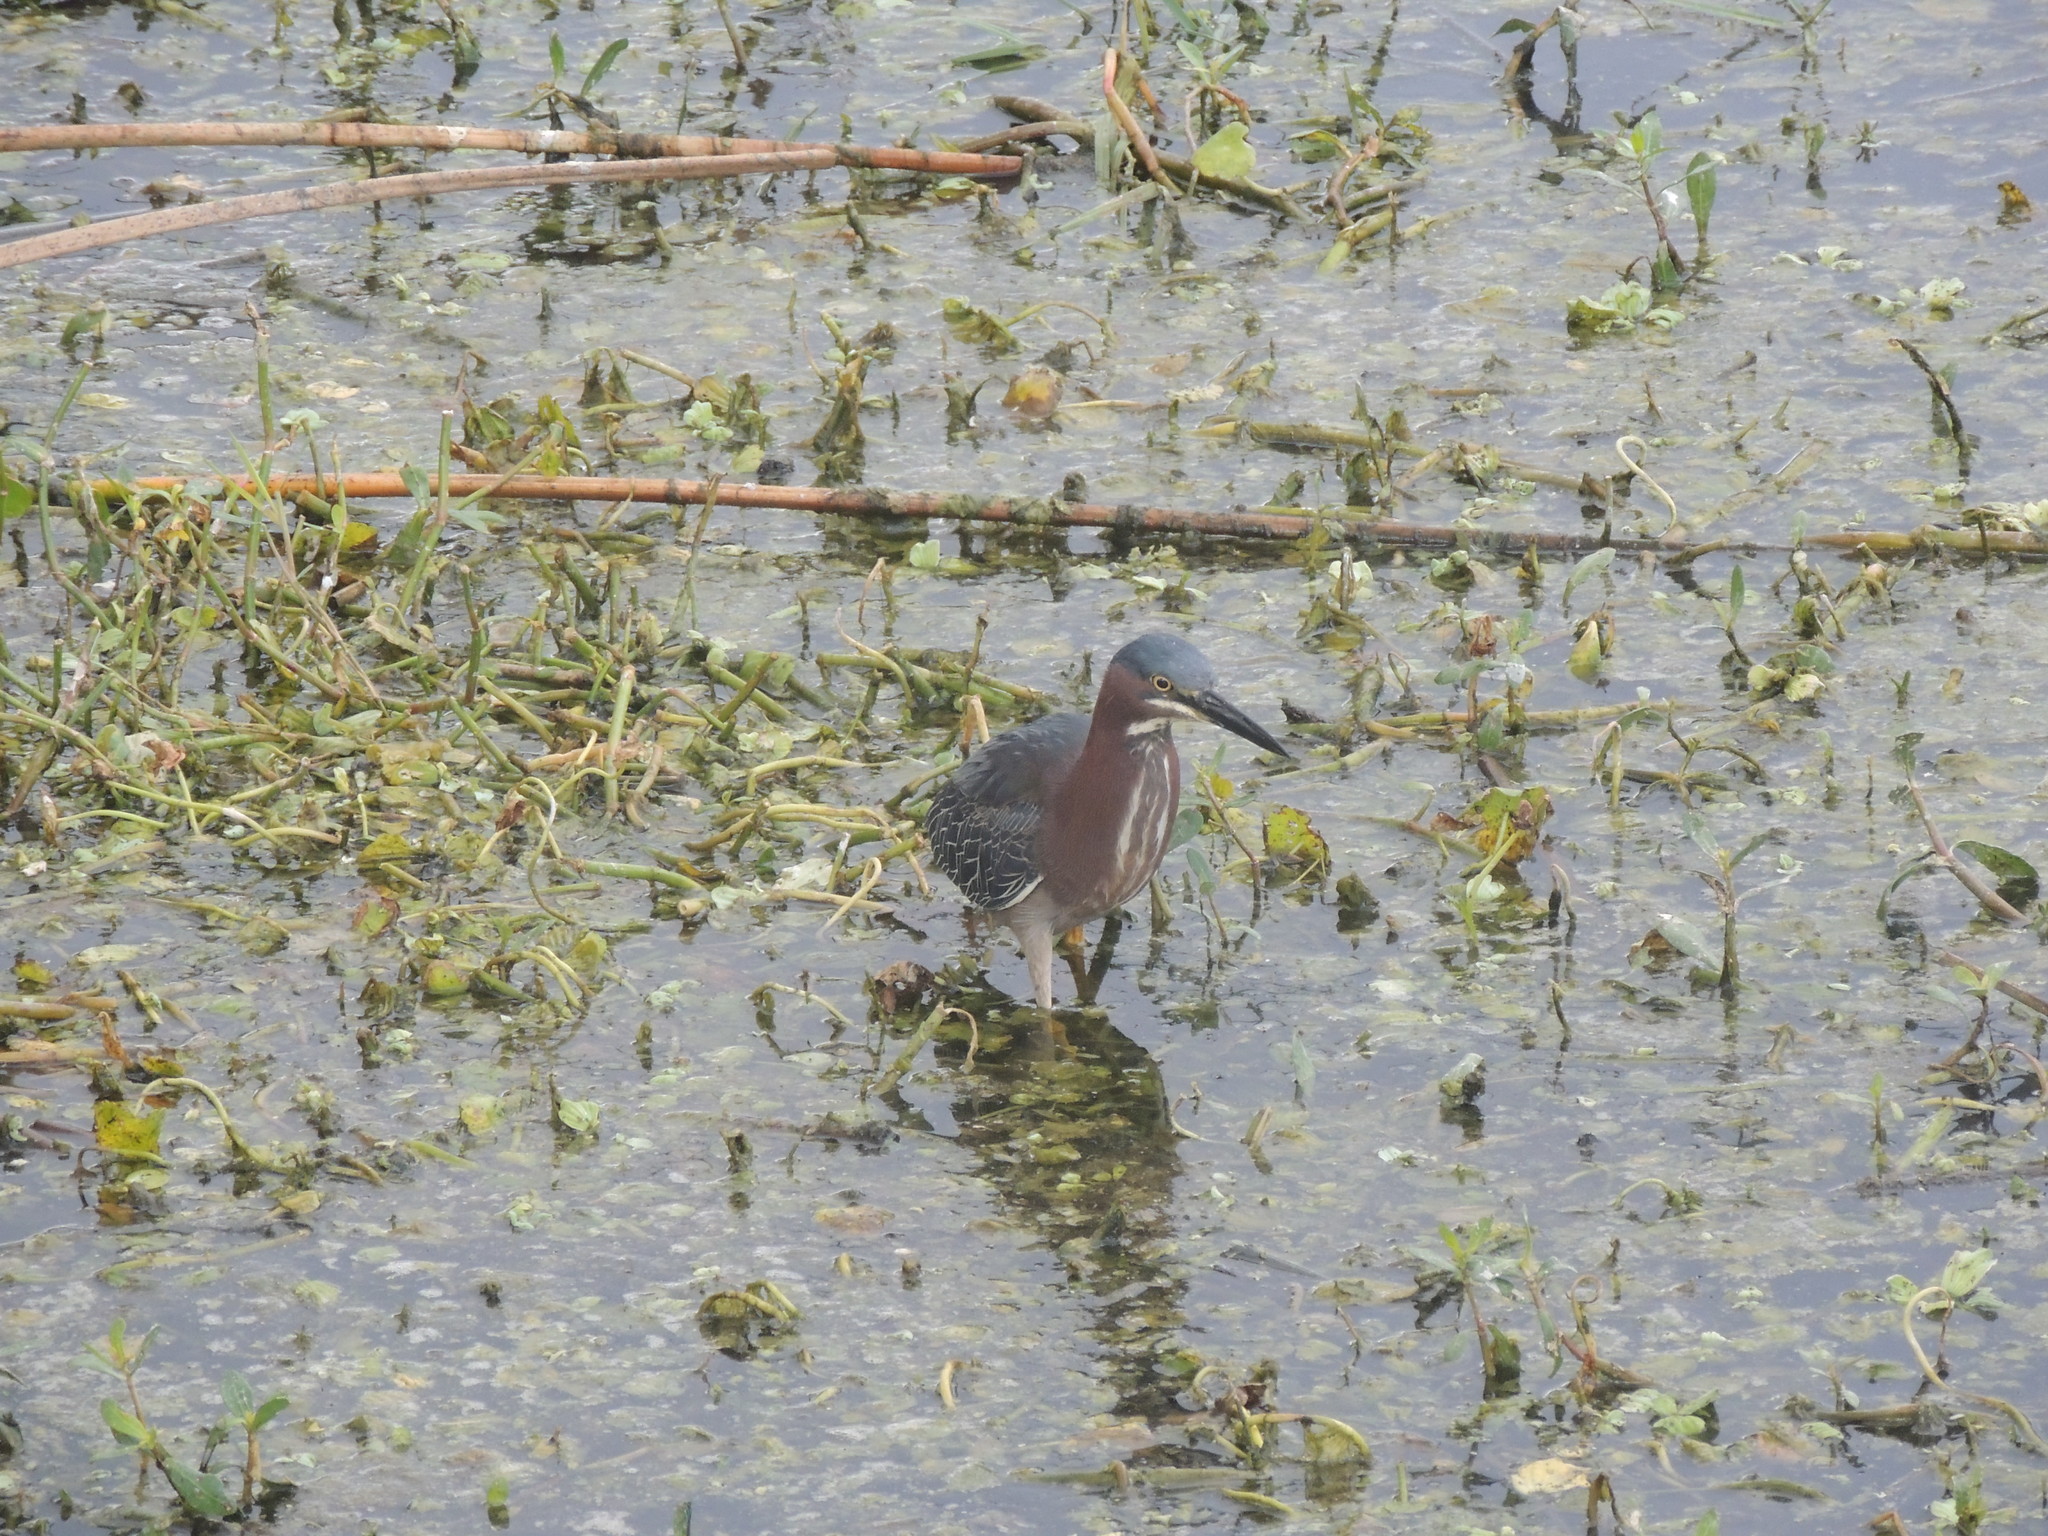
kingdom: Animalia
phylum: Chordata
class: Aves
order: Pelecaniformes
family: Ardeidae
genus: Butorides
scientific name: Butorides virescens
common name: Green heron
